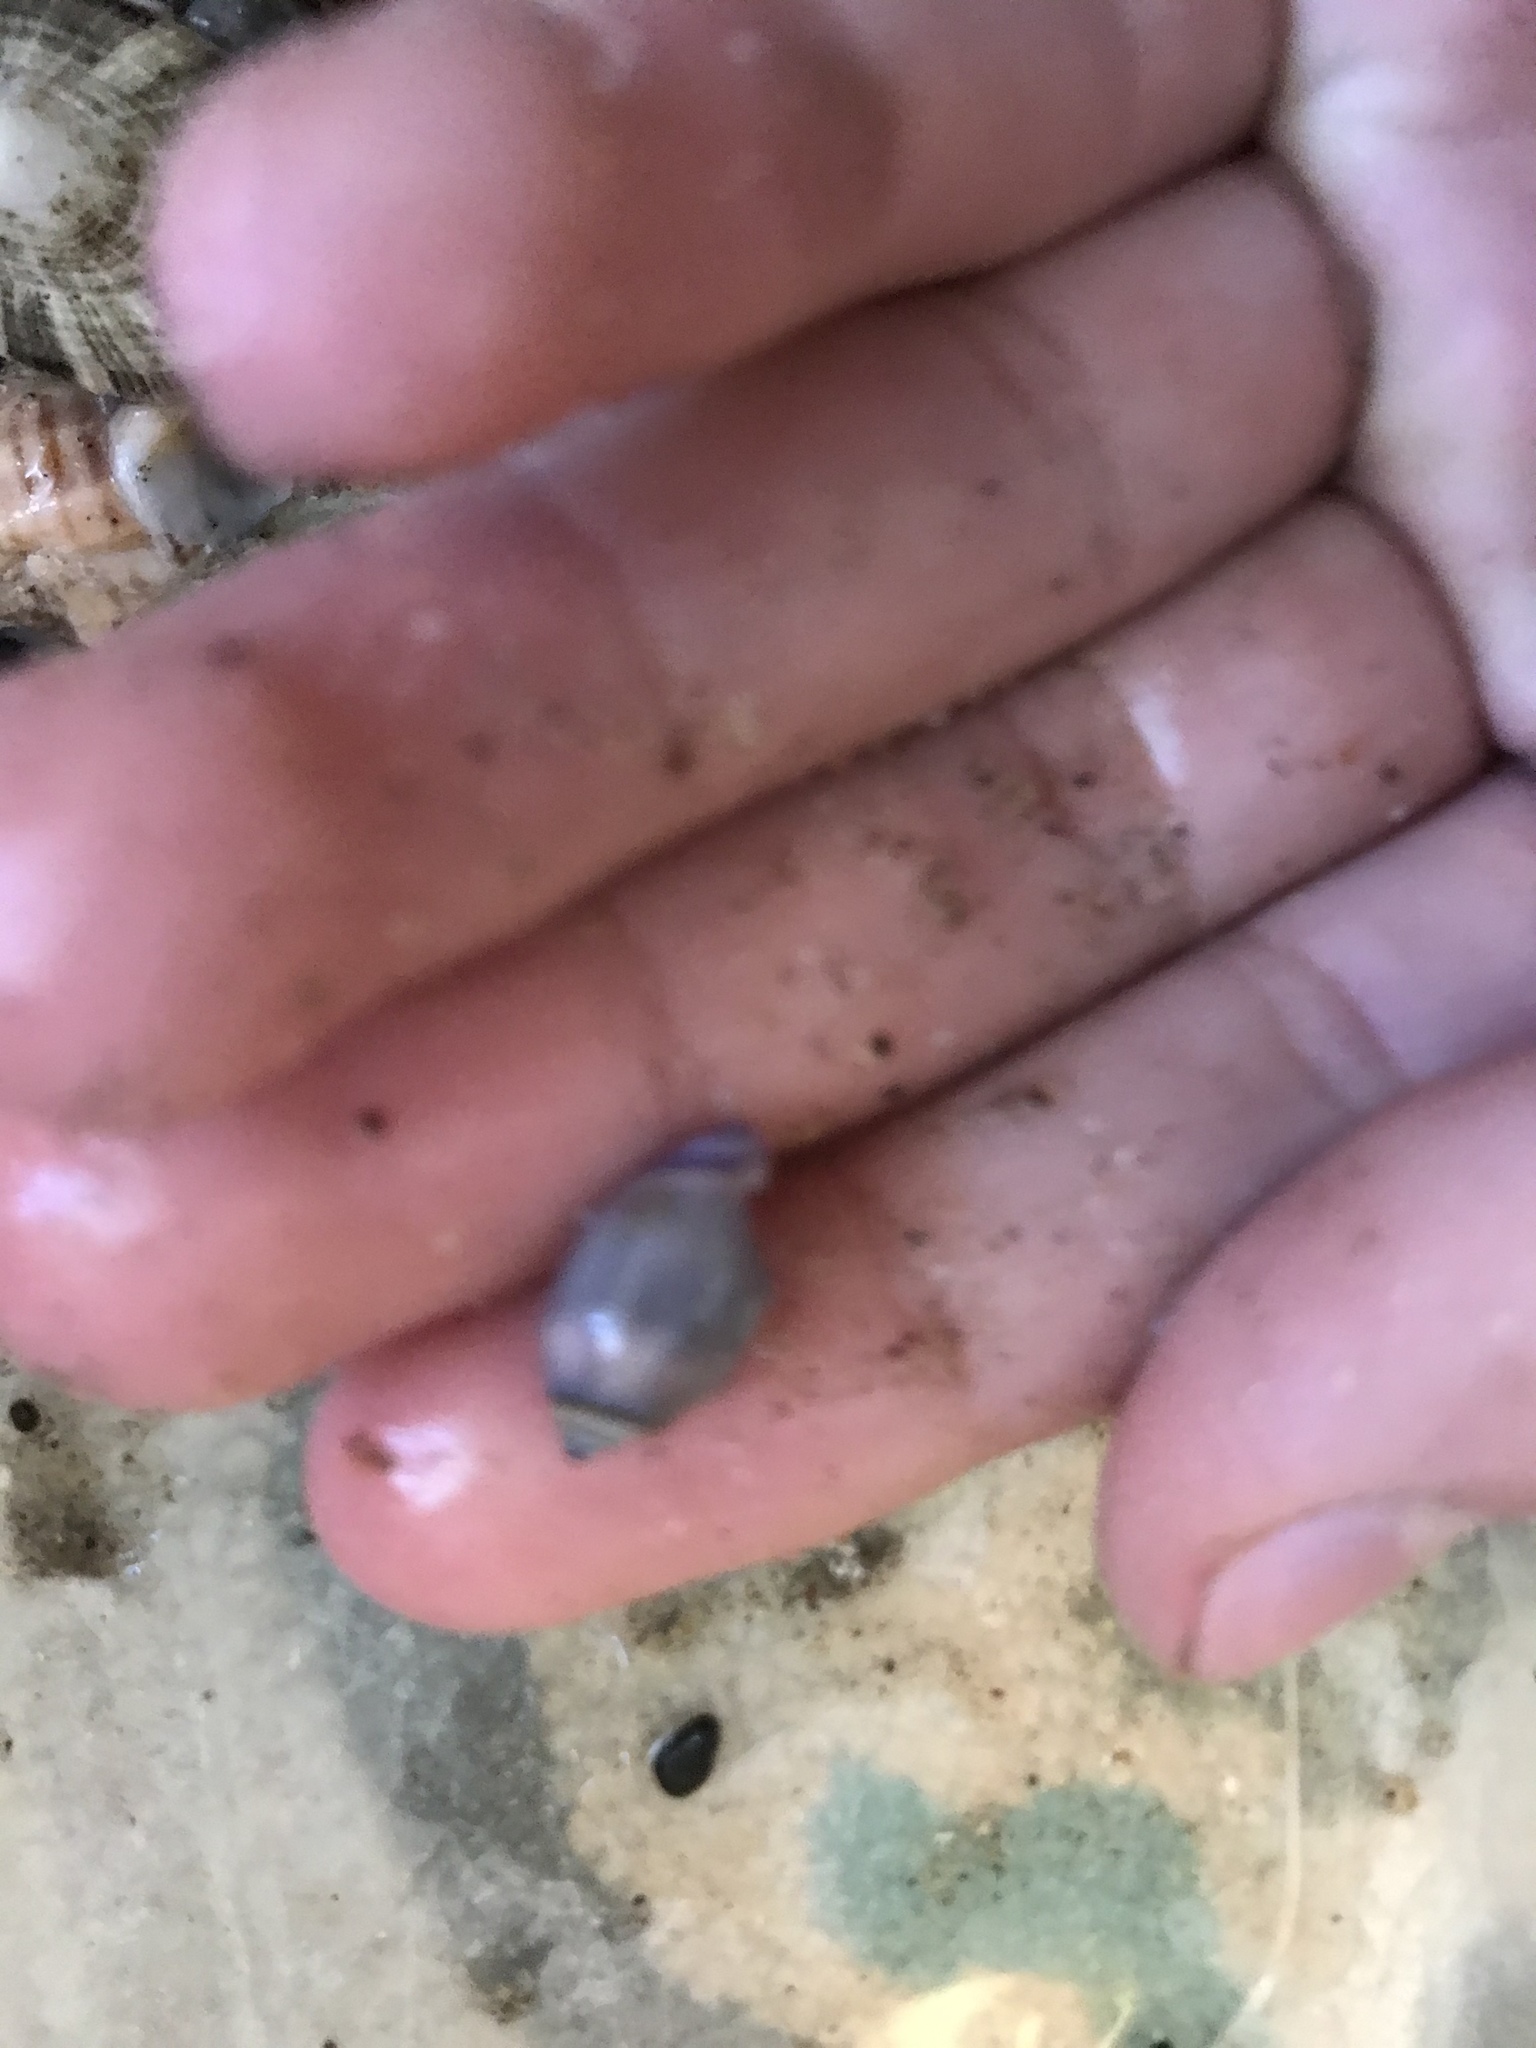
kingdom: Animalia
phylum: Mollusca
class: Gastropoda
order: Neogastropoda
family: Olividae
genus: Callianax
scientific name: Callianax biplicata
